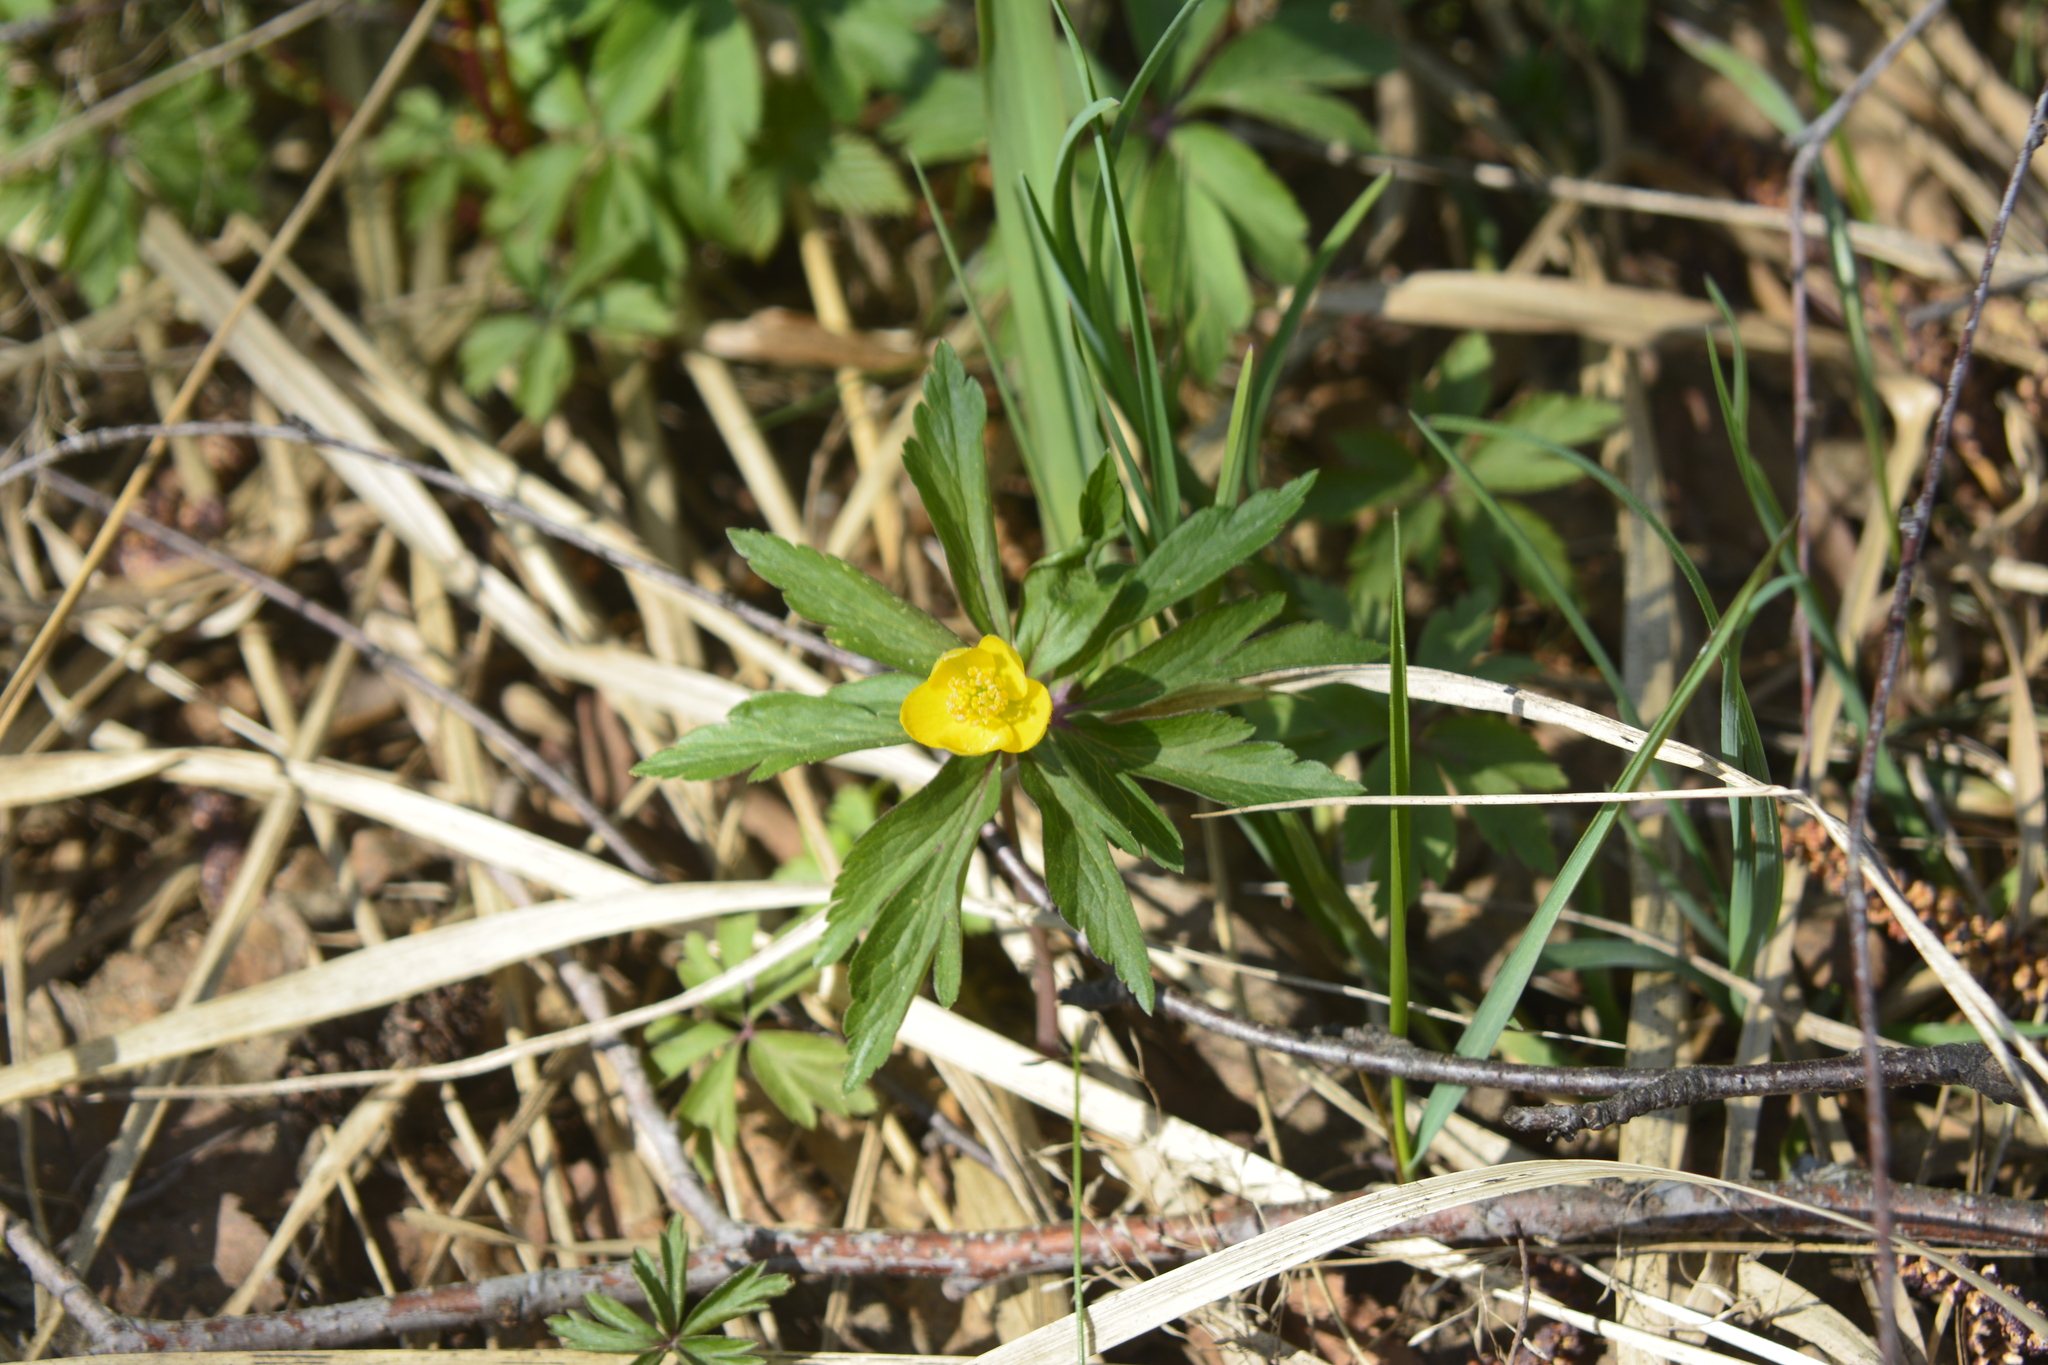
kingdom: Plantae
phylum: Tracheophyta
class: Magnoliopsida
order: Ranunculales
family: Ranunculaceae
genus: Anemone
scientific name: Anemone ranunculoides
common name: Yellow anemone
